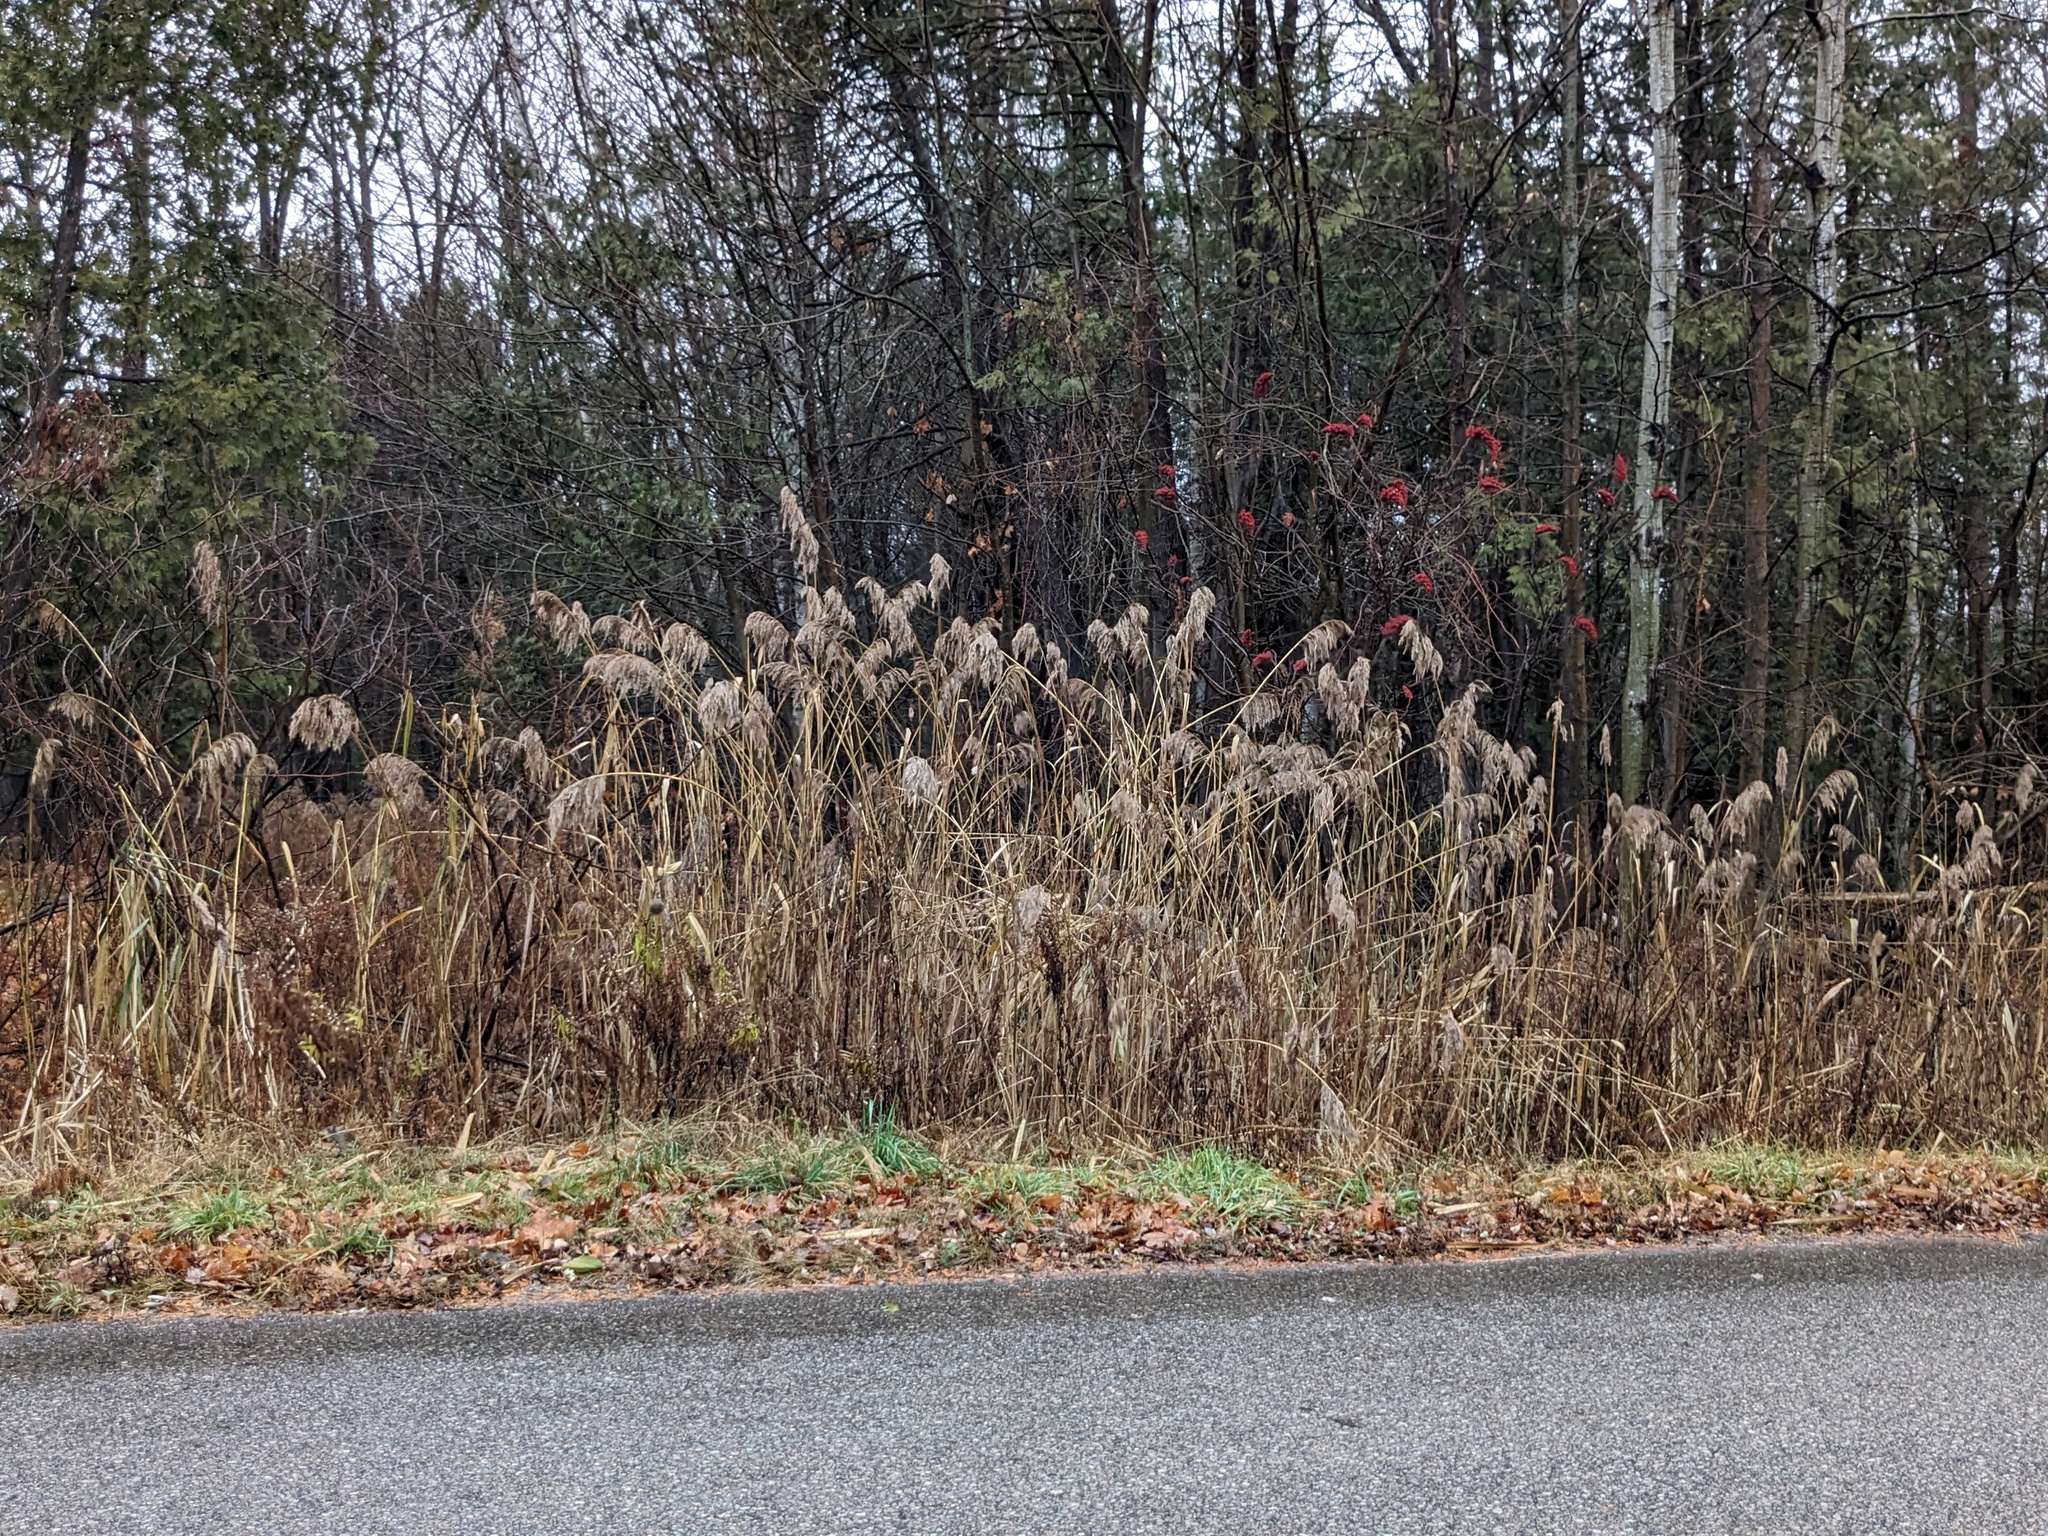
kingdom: Plantae
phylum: Tracheophyta
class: Liliopsida
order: Poales
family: Poaceae
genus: Phragmites
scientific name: Phragmites australis
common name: Common reed
